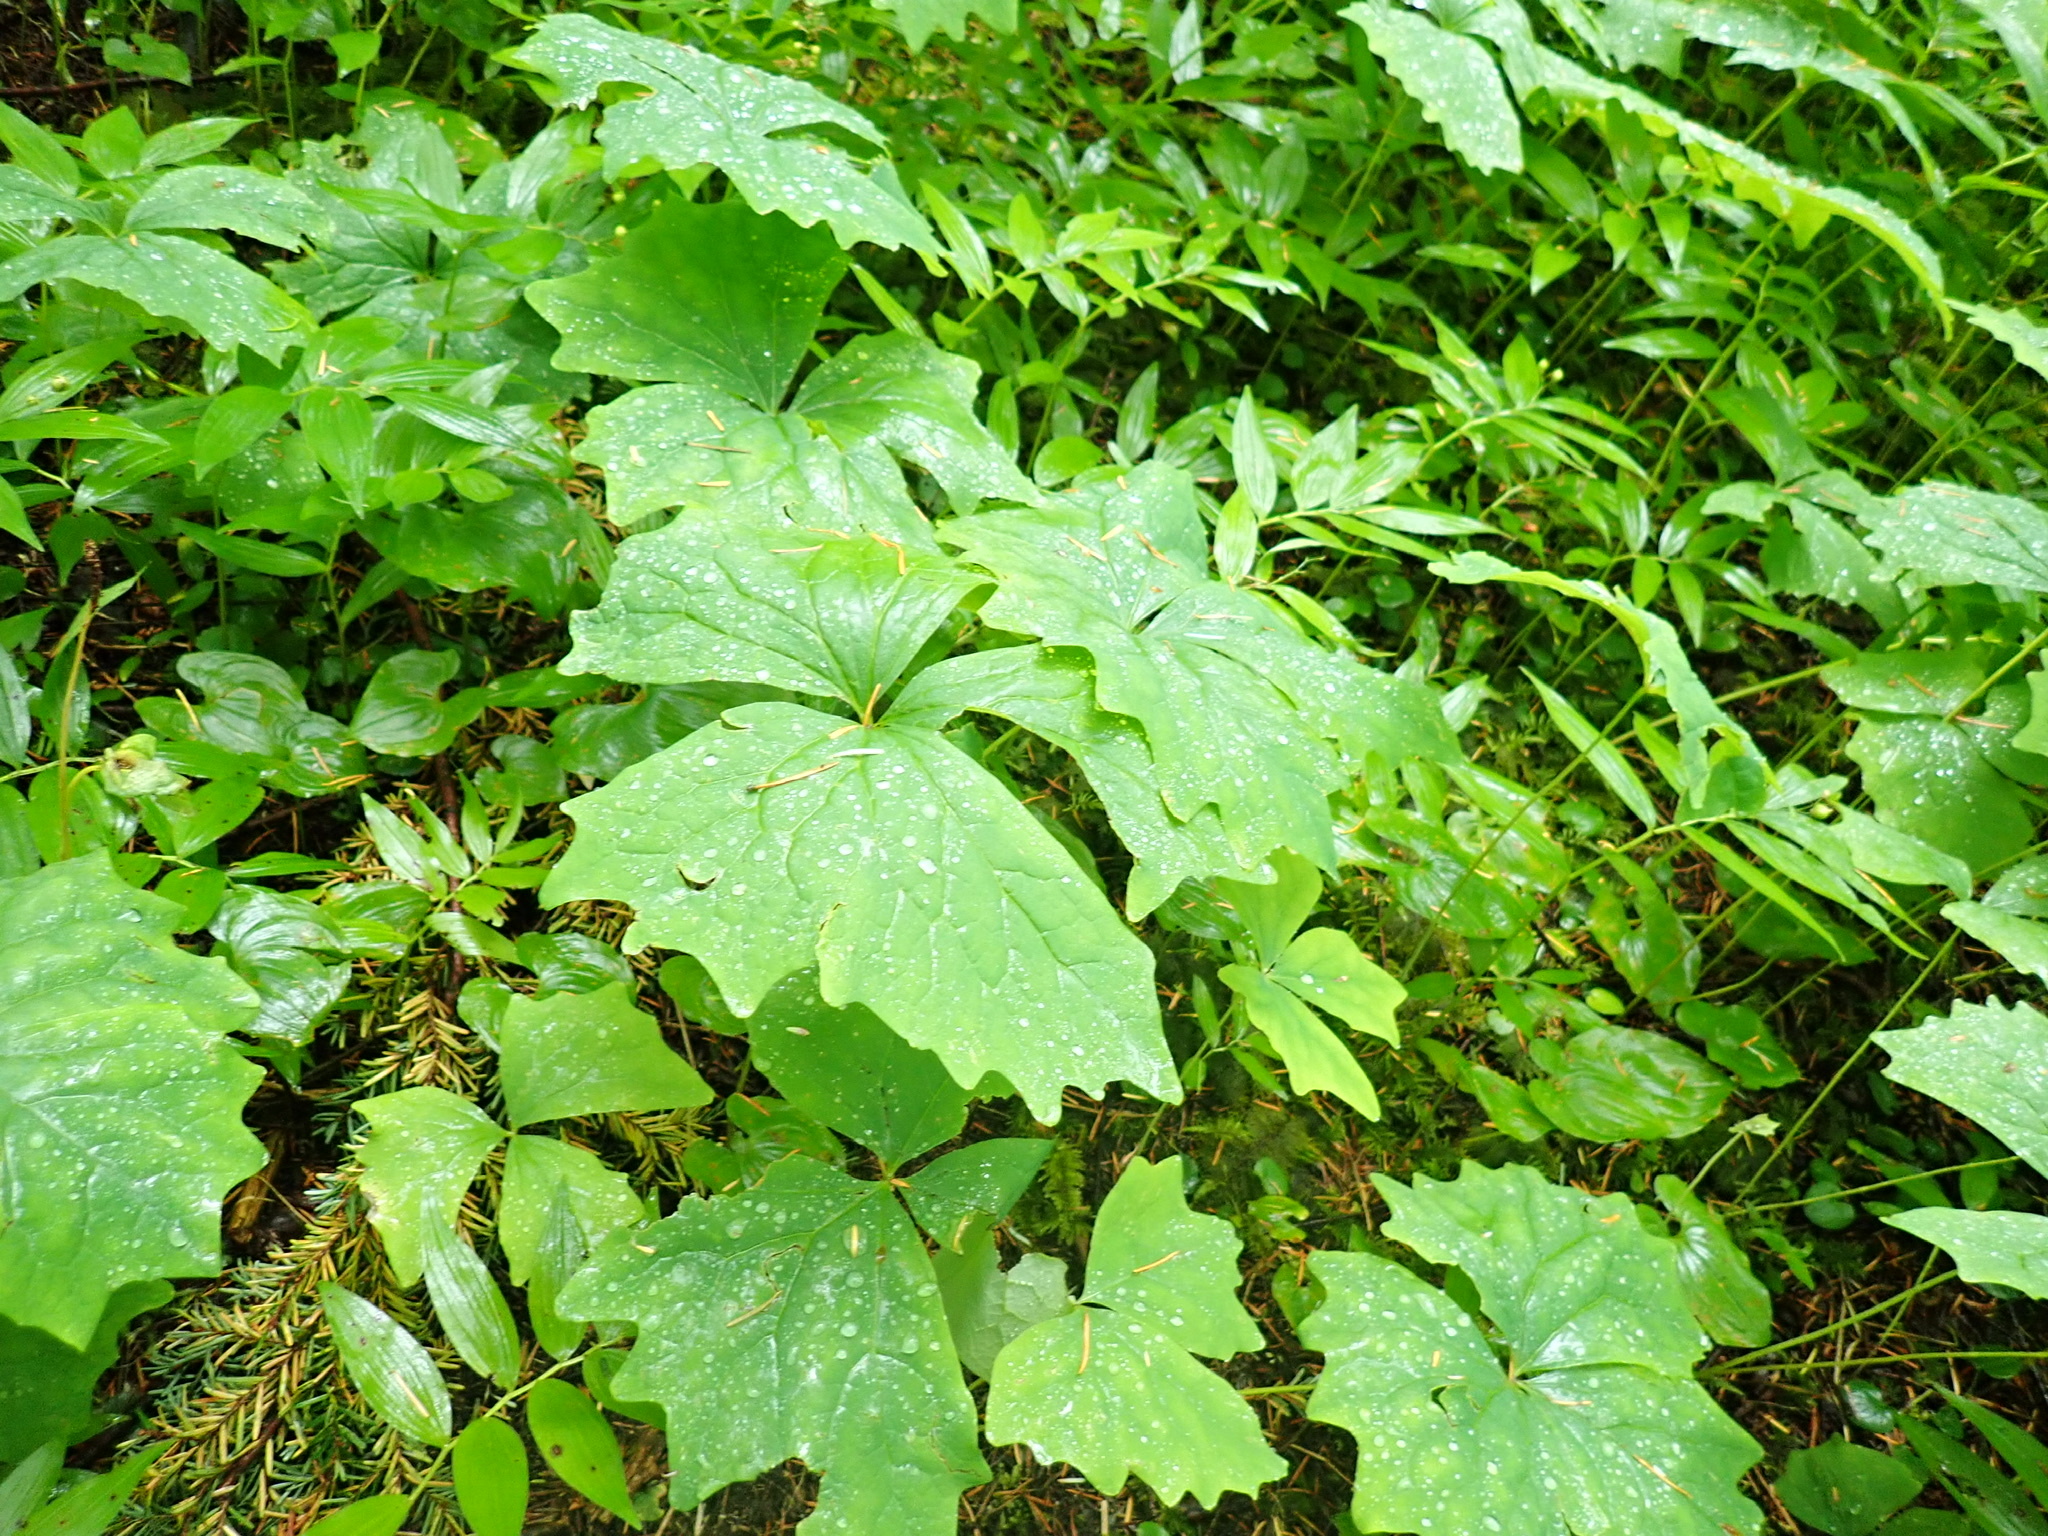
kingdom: Plantae
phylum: Tracheophyta
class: Magnoliopsida
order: Ranunculales
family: Berberidaceae
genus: Achlys
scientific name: Achlys triphylla
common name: Vanilla-leaf
